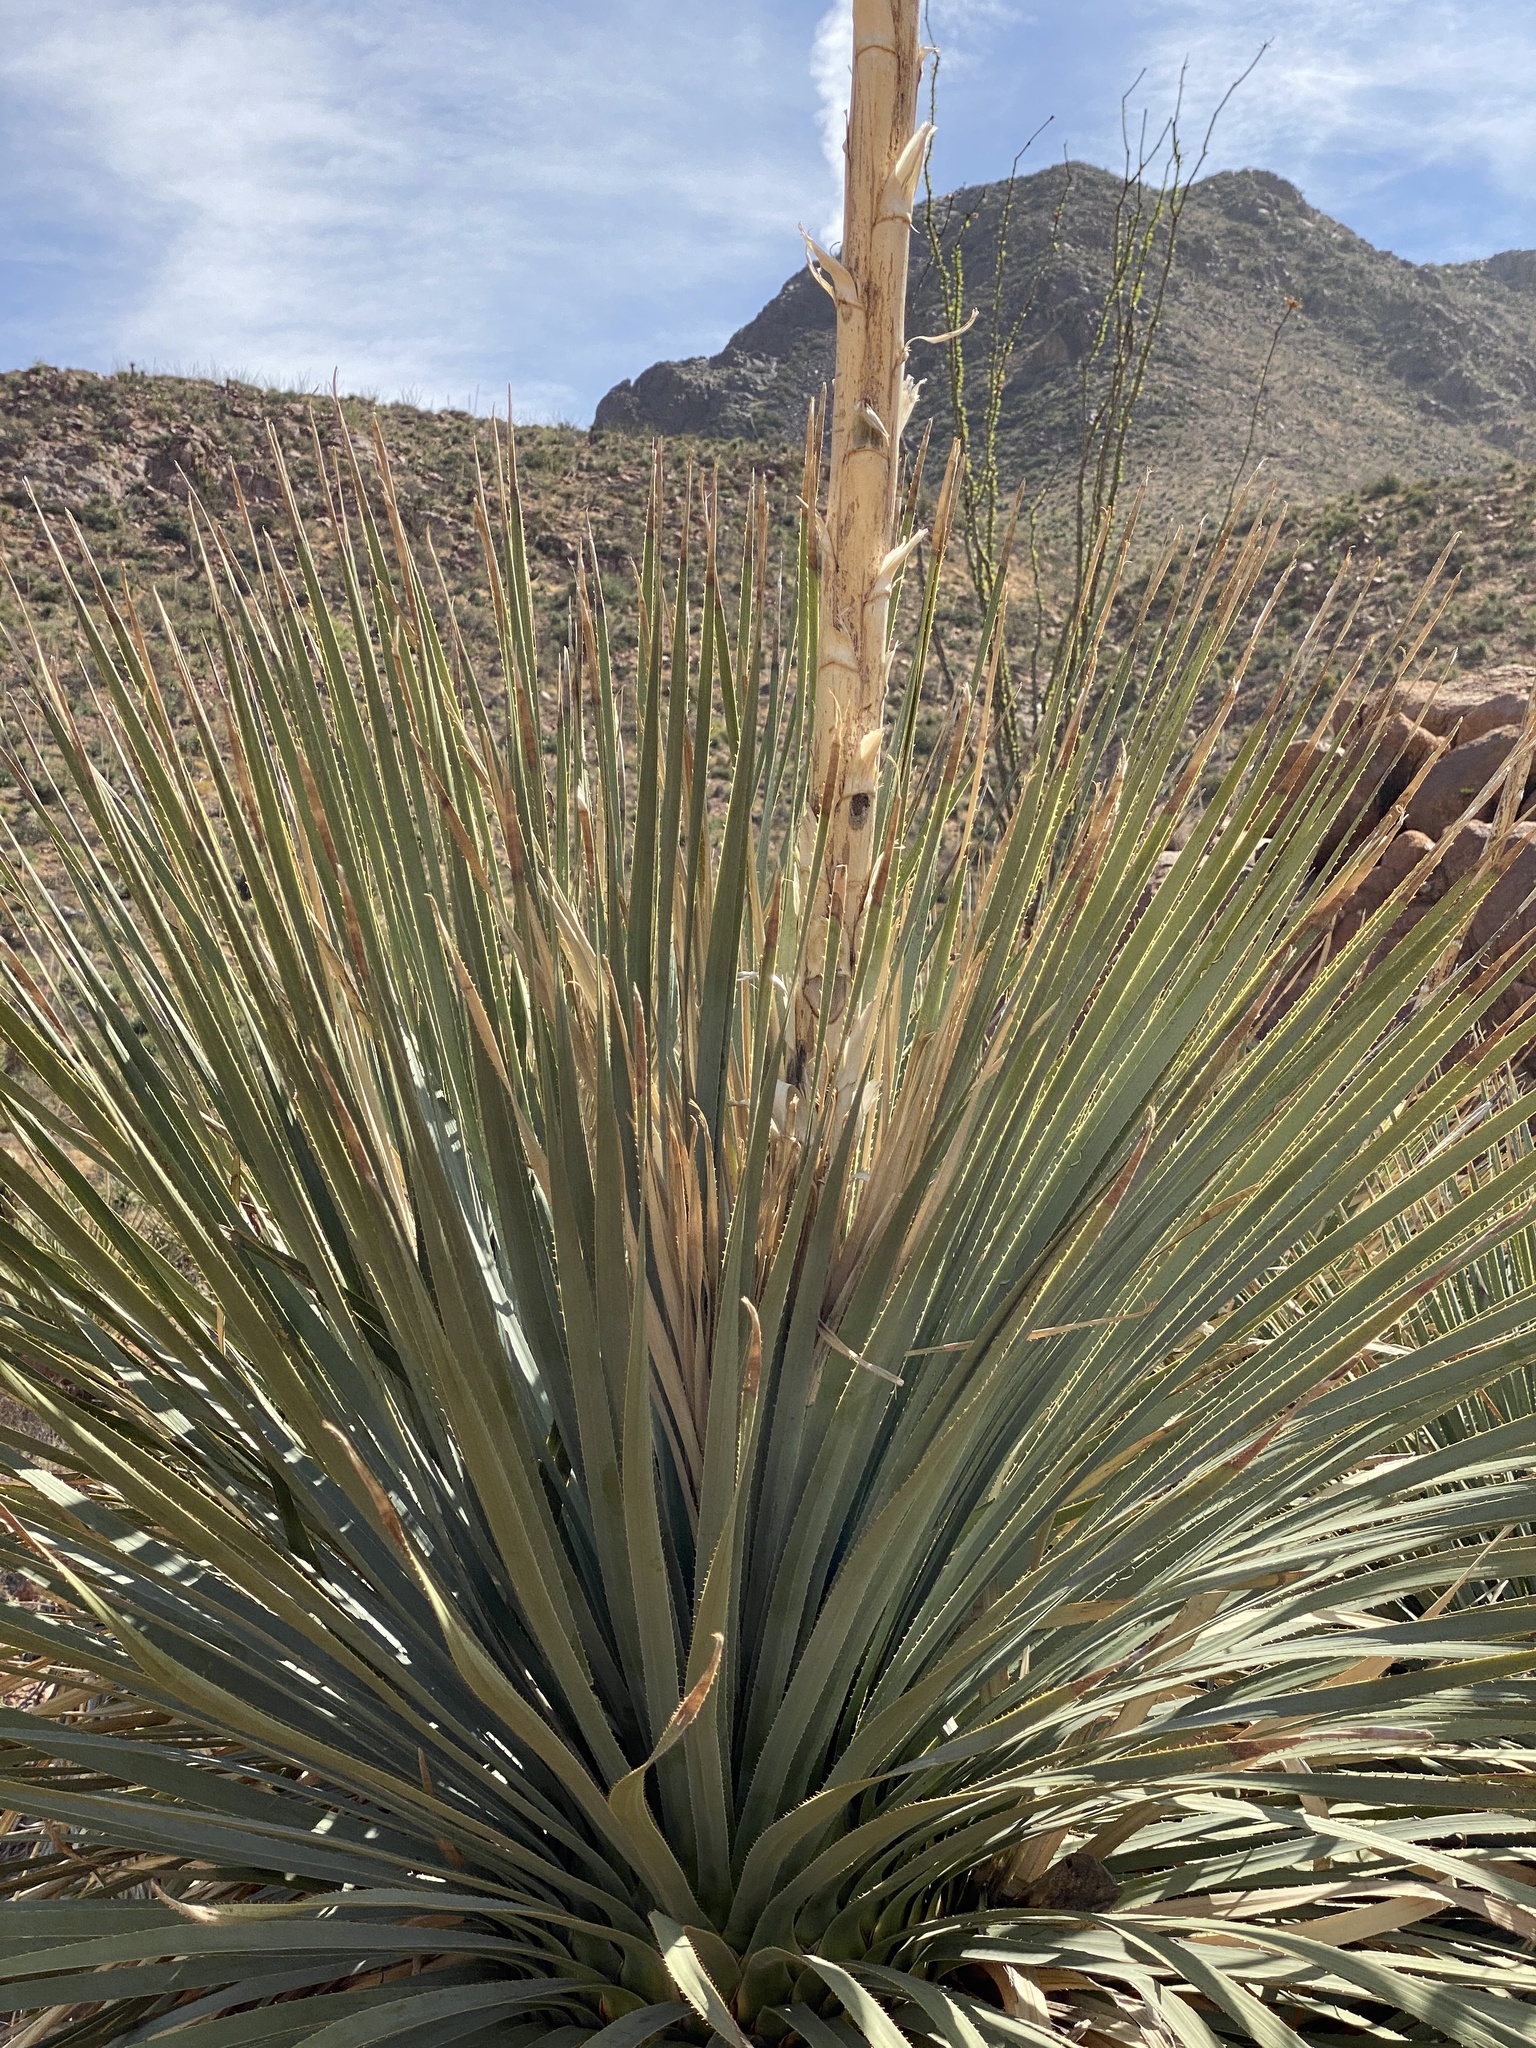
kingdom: Plantae
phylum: Tracheophyta
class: Liliopsida
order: Asparagales
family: Asparagaceae
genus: Dasylirion
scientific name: Dasylirion wheeleri
